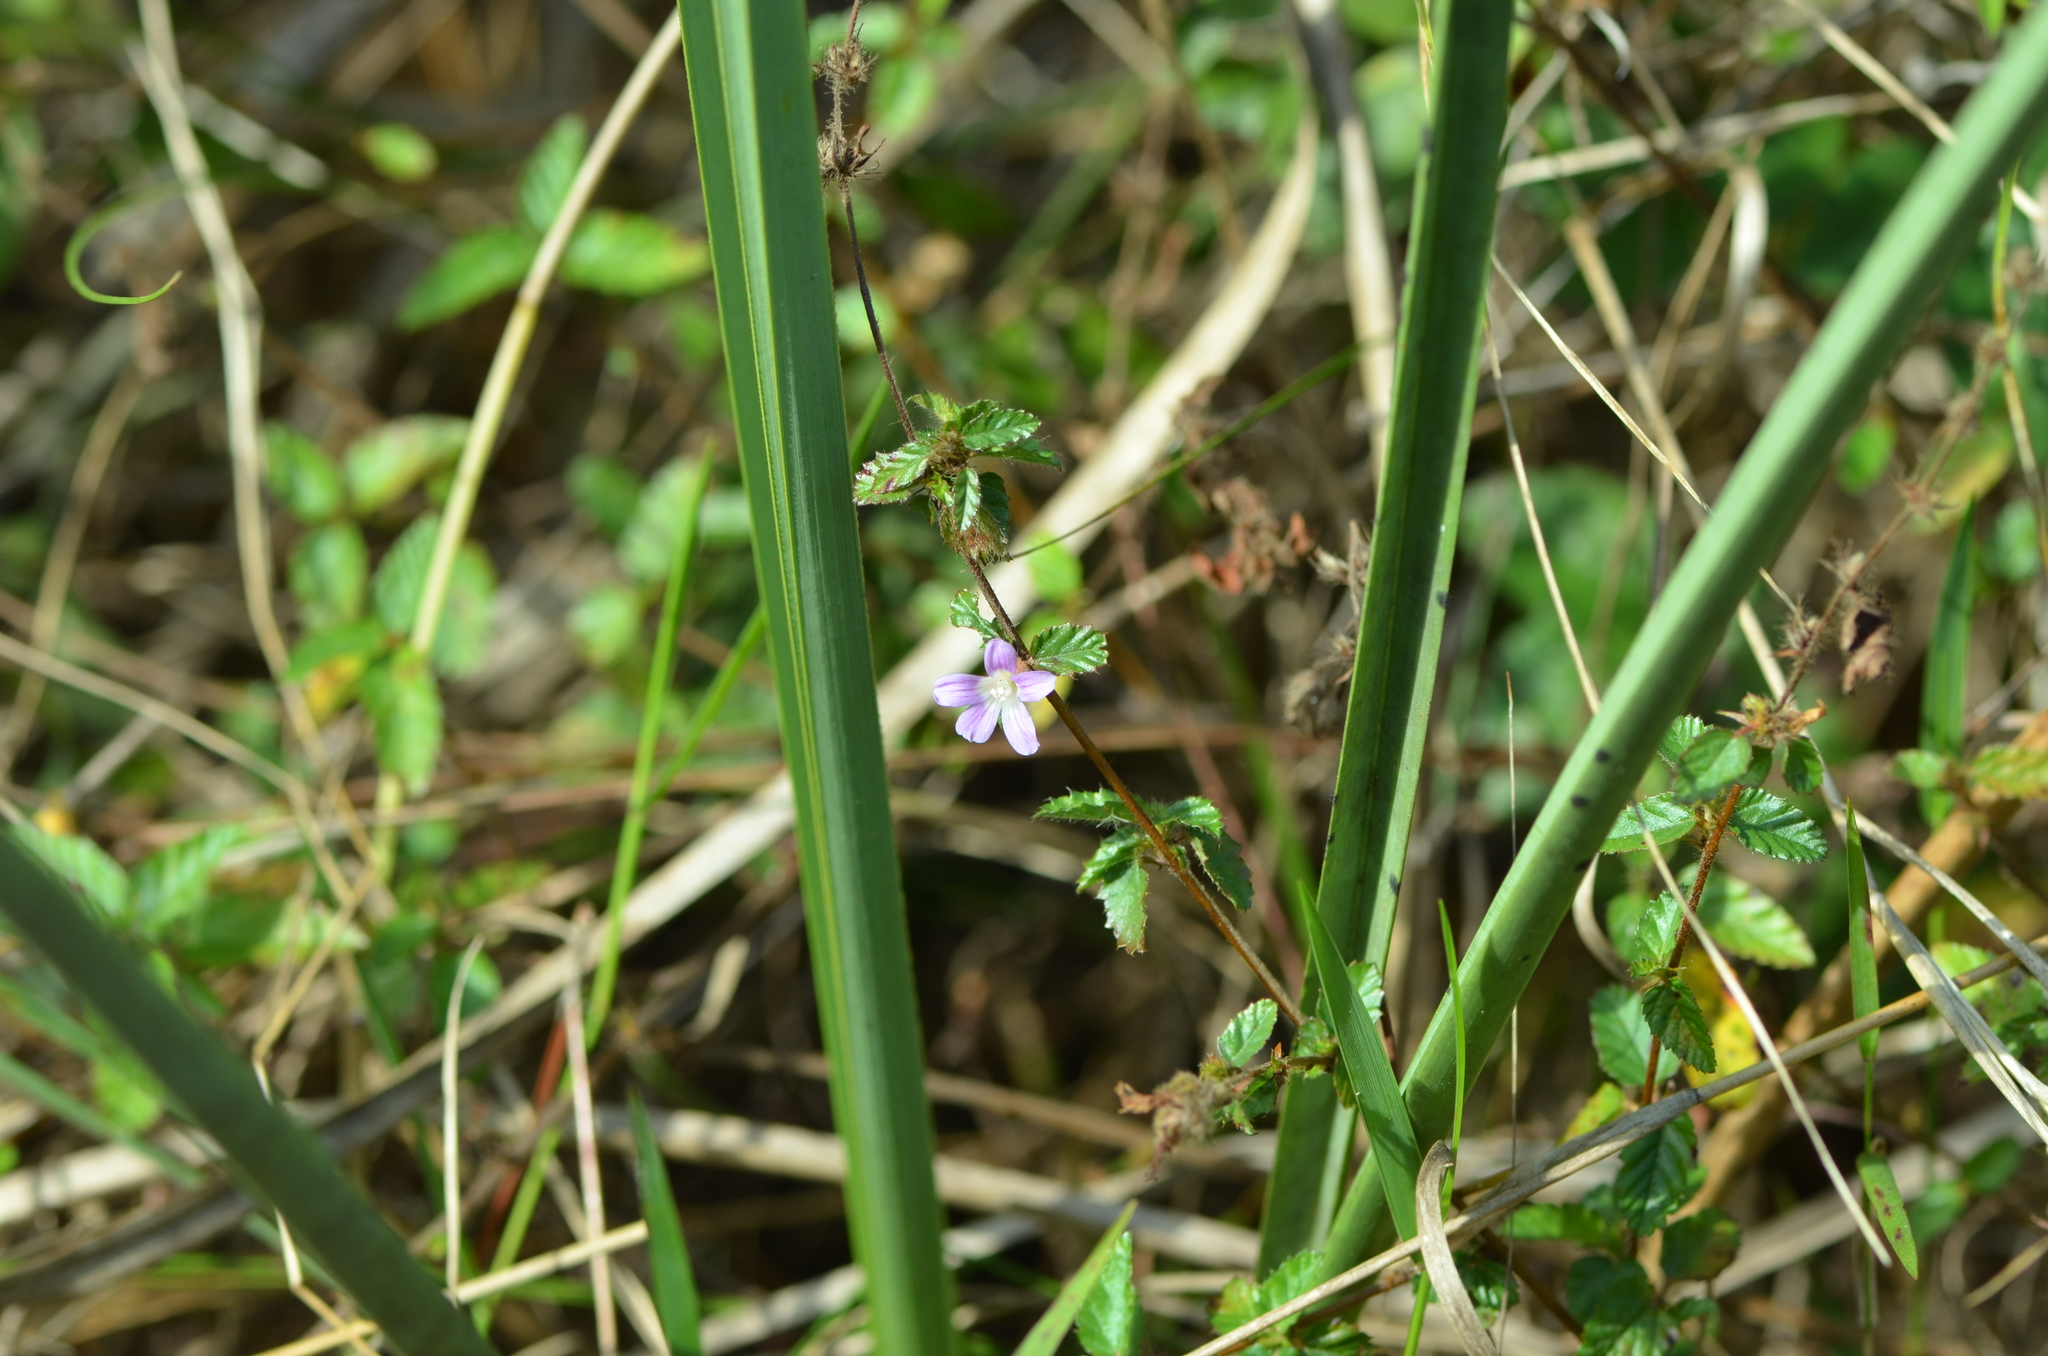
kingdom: Plantae
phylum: Tracheophyta
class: Magnoliopsida
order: Malvales
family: Malvaceae
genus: Melochia
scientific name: Melochia spicata
